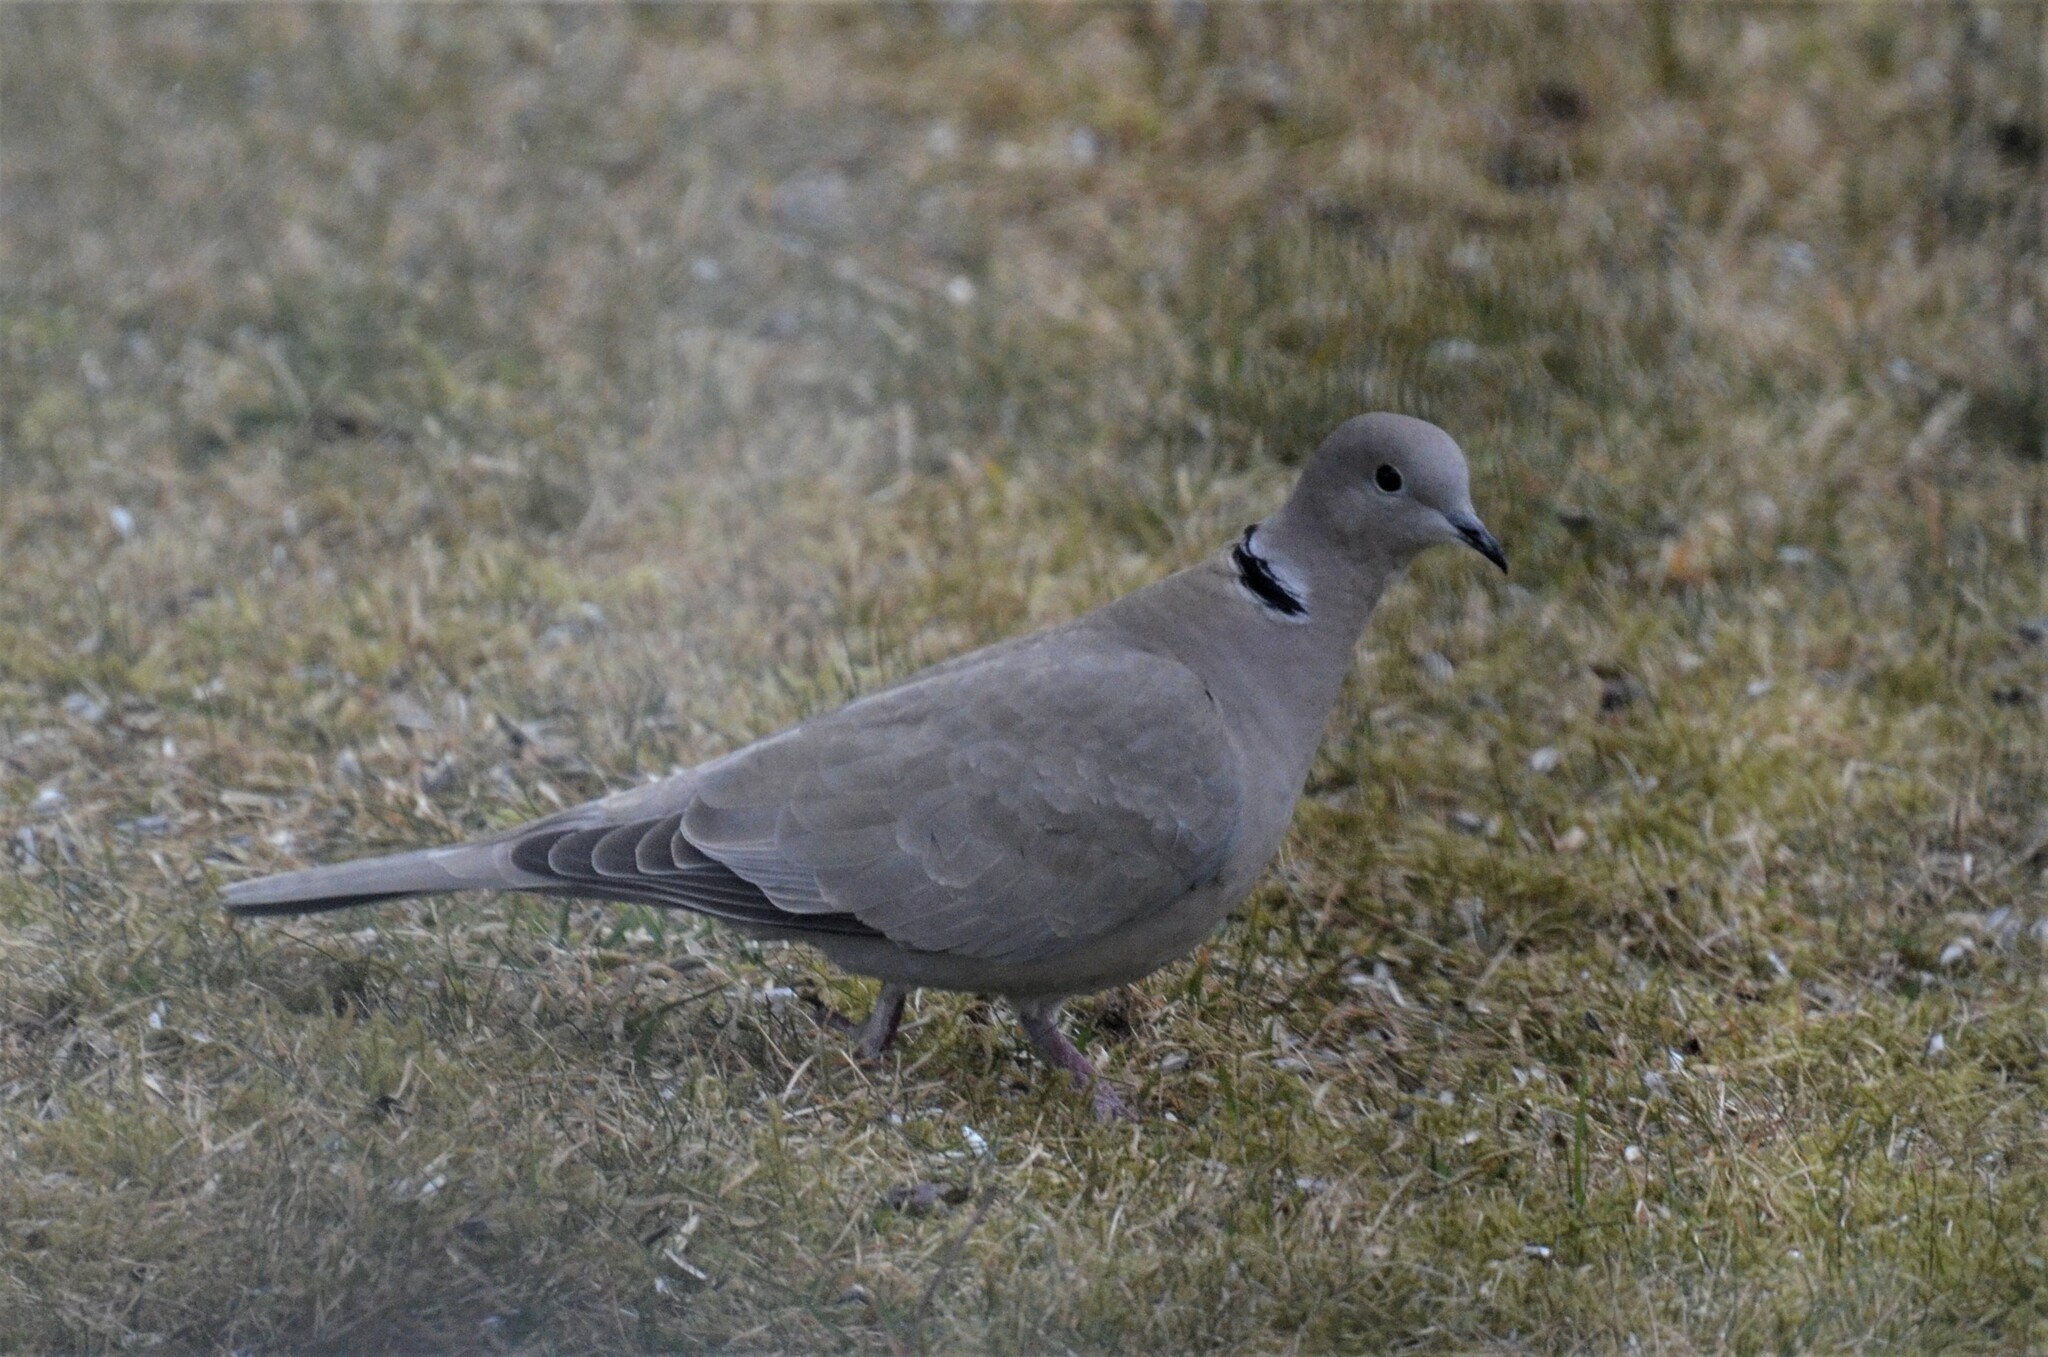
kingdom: Animalia
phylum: Chordata
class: Aves
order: Columbiformes
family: Columbidae
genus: Streptopelia
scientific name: Streptopelia decaocto
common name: Eurasian collared dove
